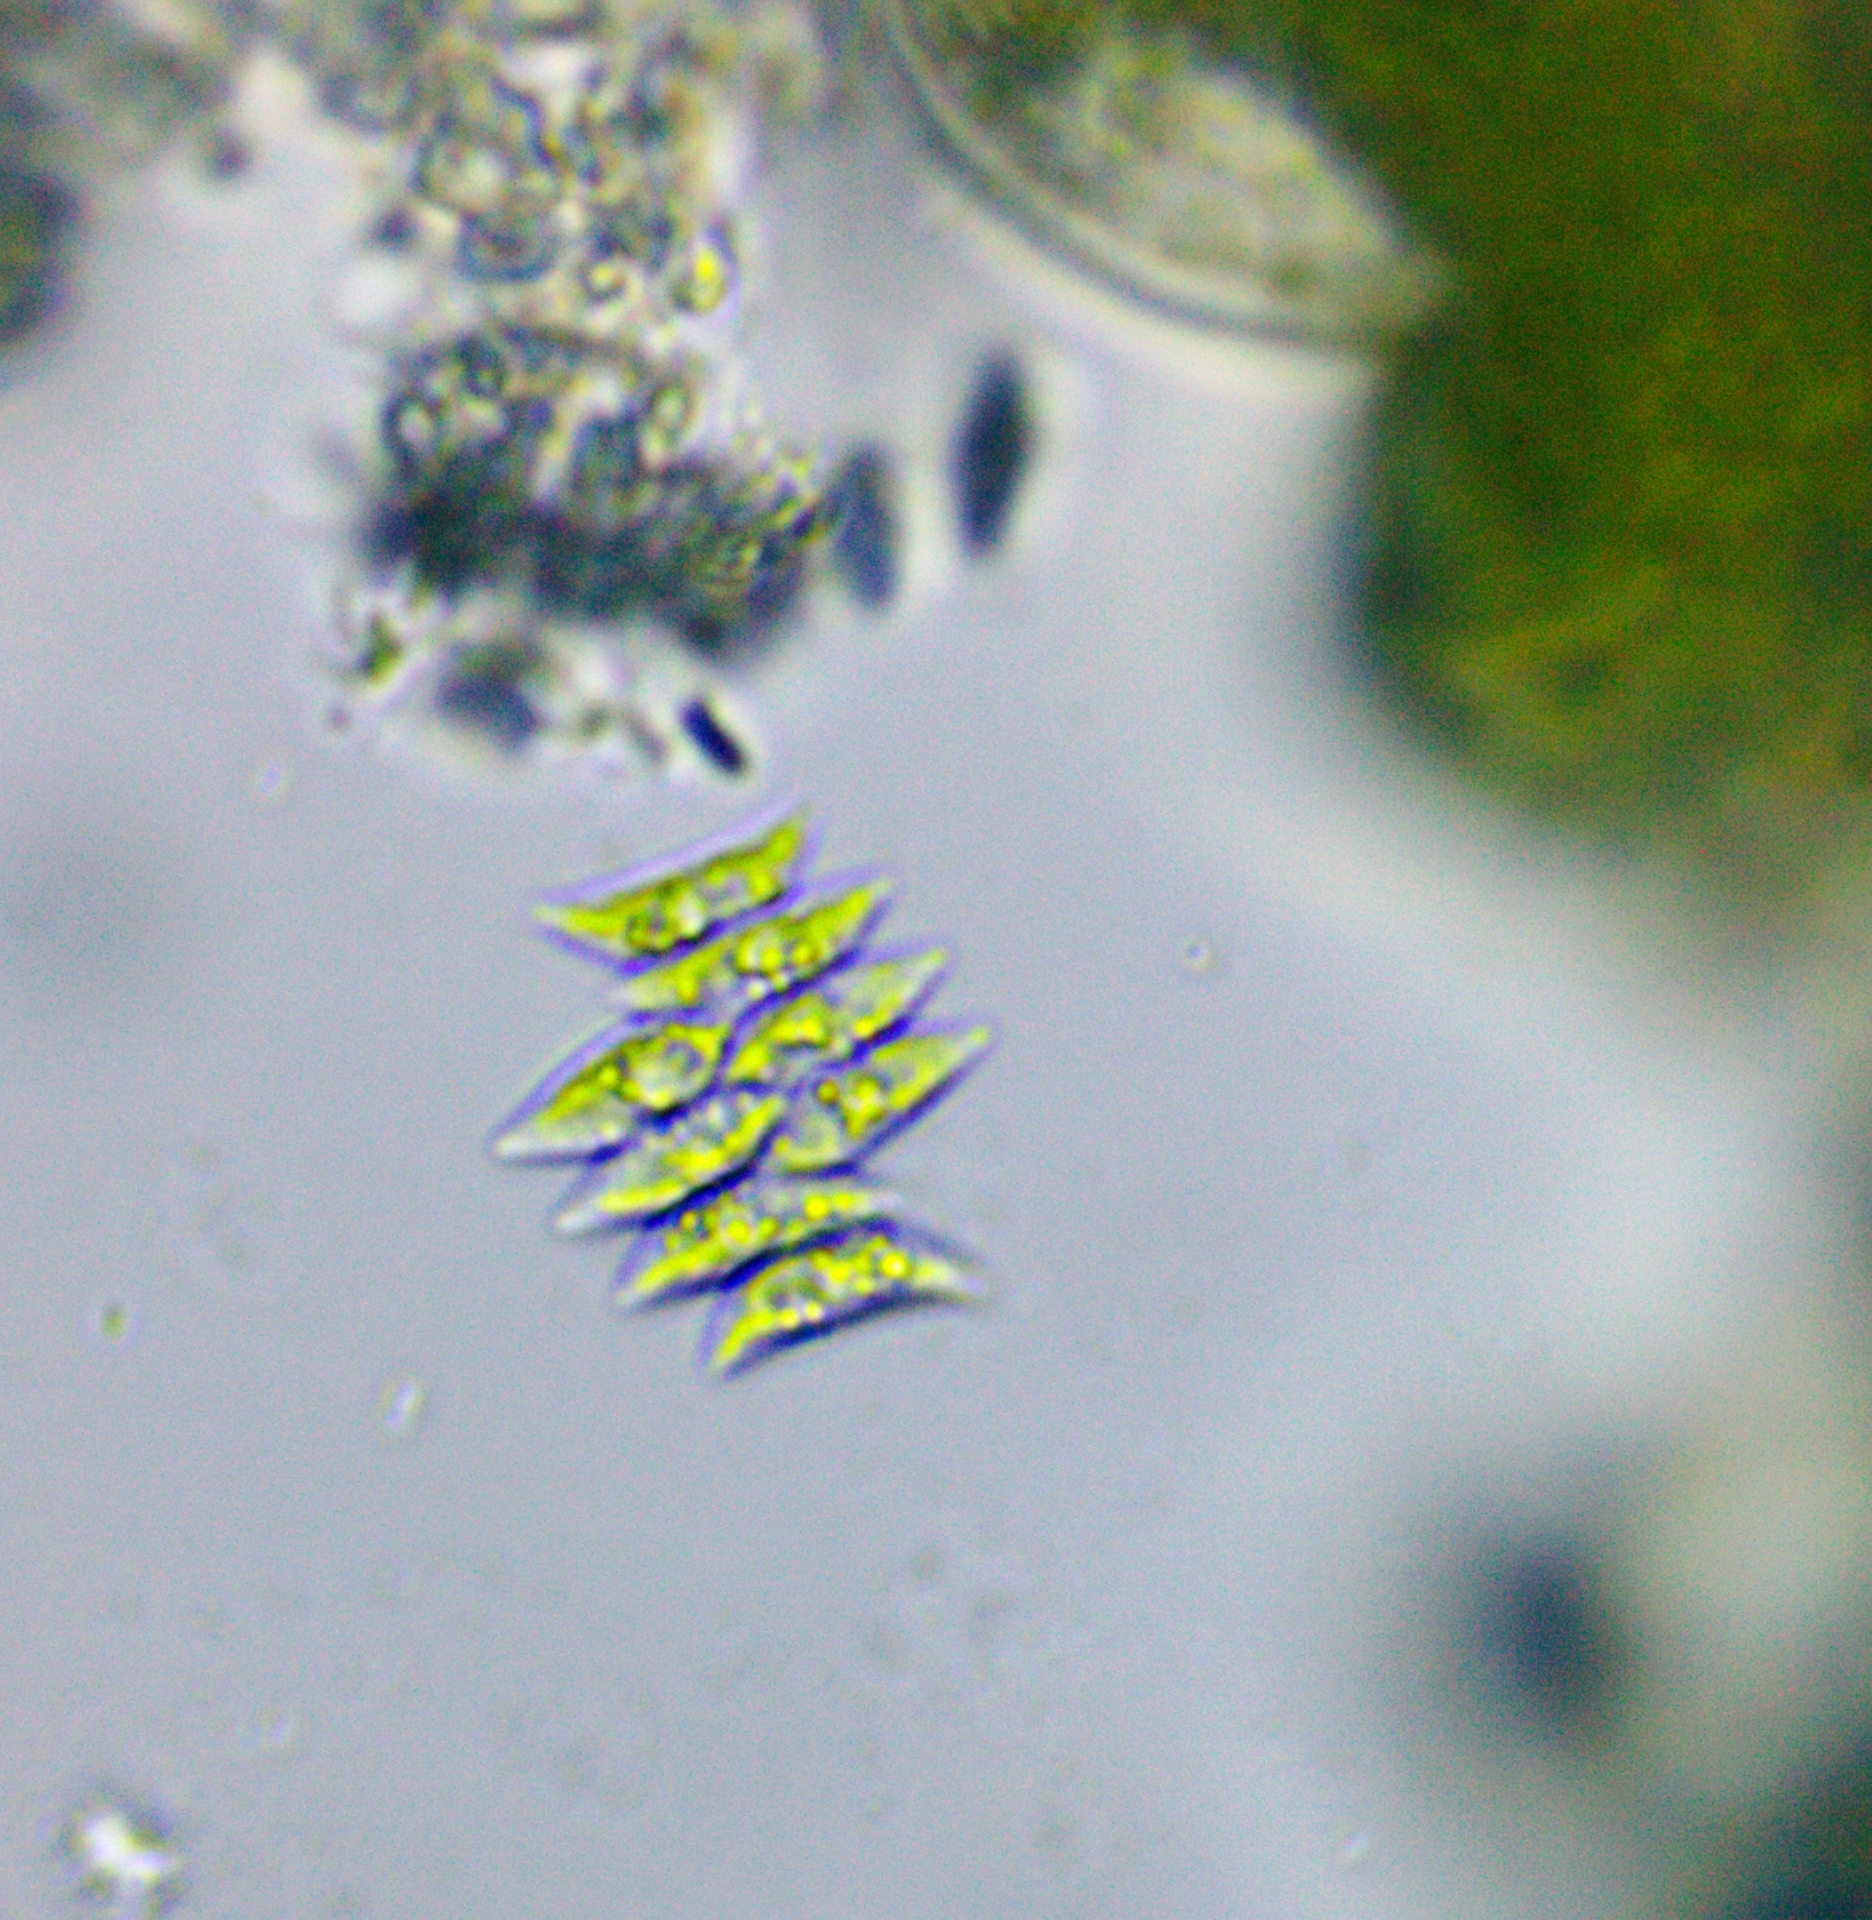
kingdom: Plantae
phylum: Chlorophyta
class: Chlorophyceae
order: Sphaeropleales
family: Scenedesmaceae
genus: Tetradesmus
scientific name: Tetradesmus obliquus
